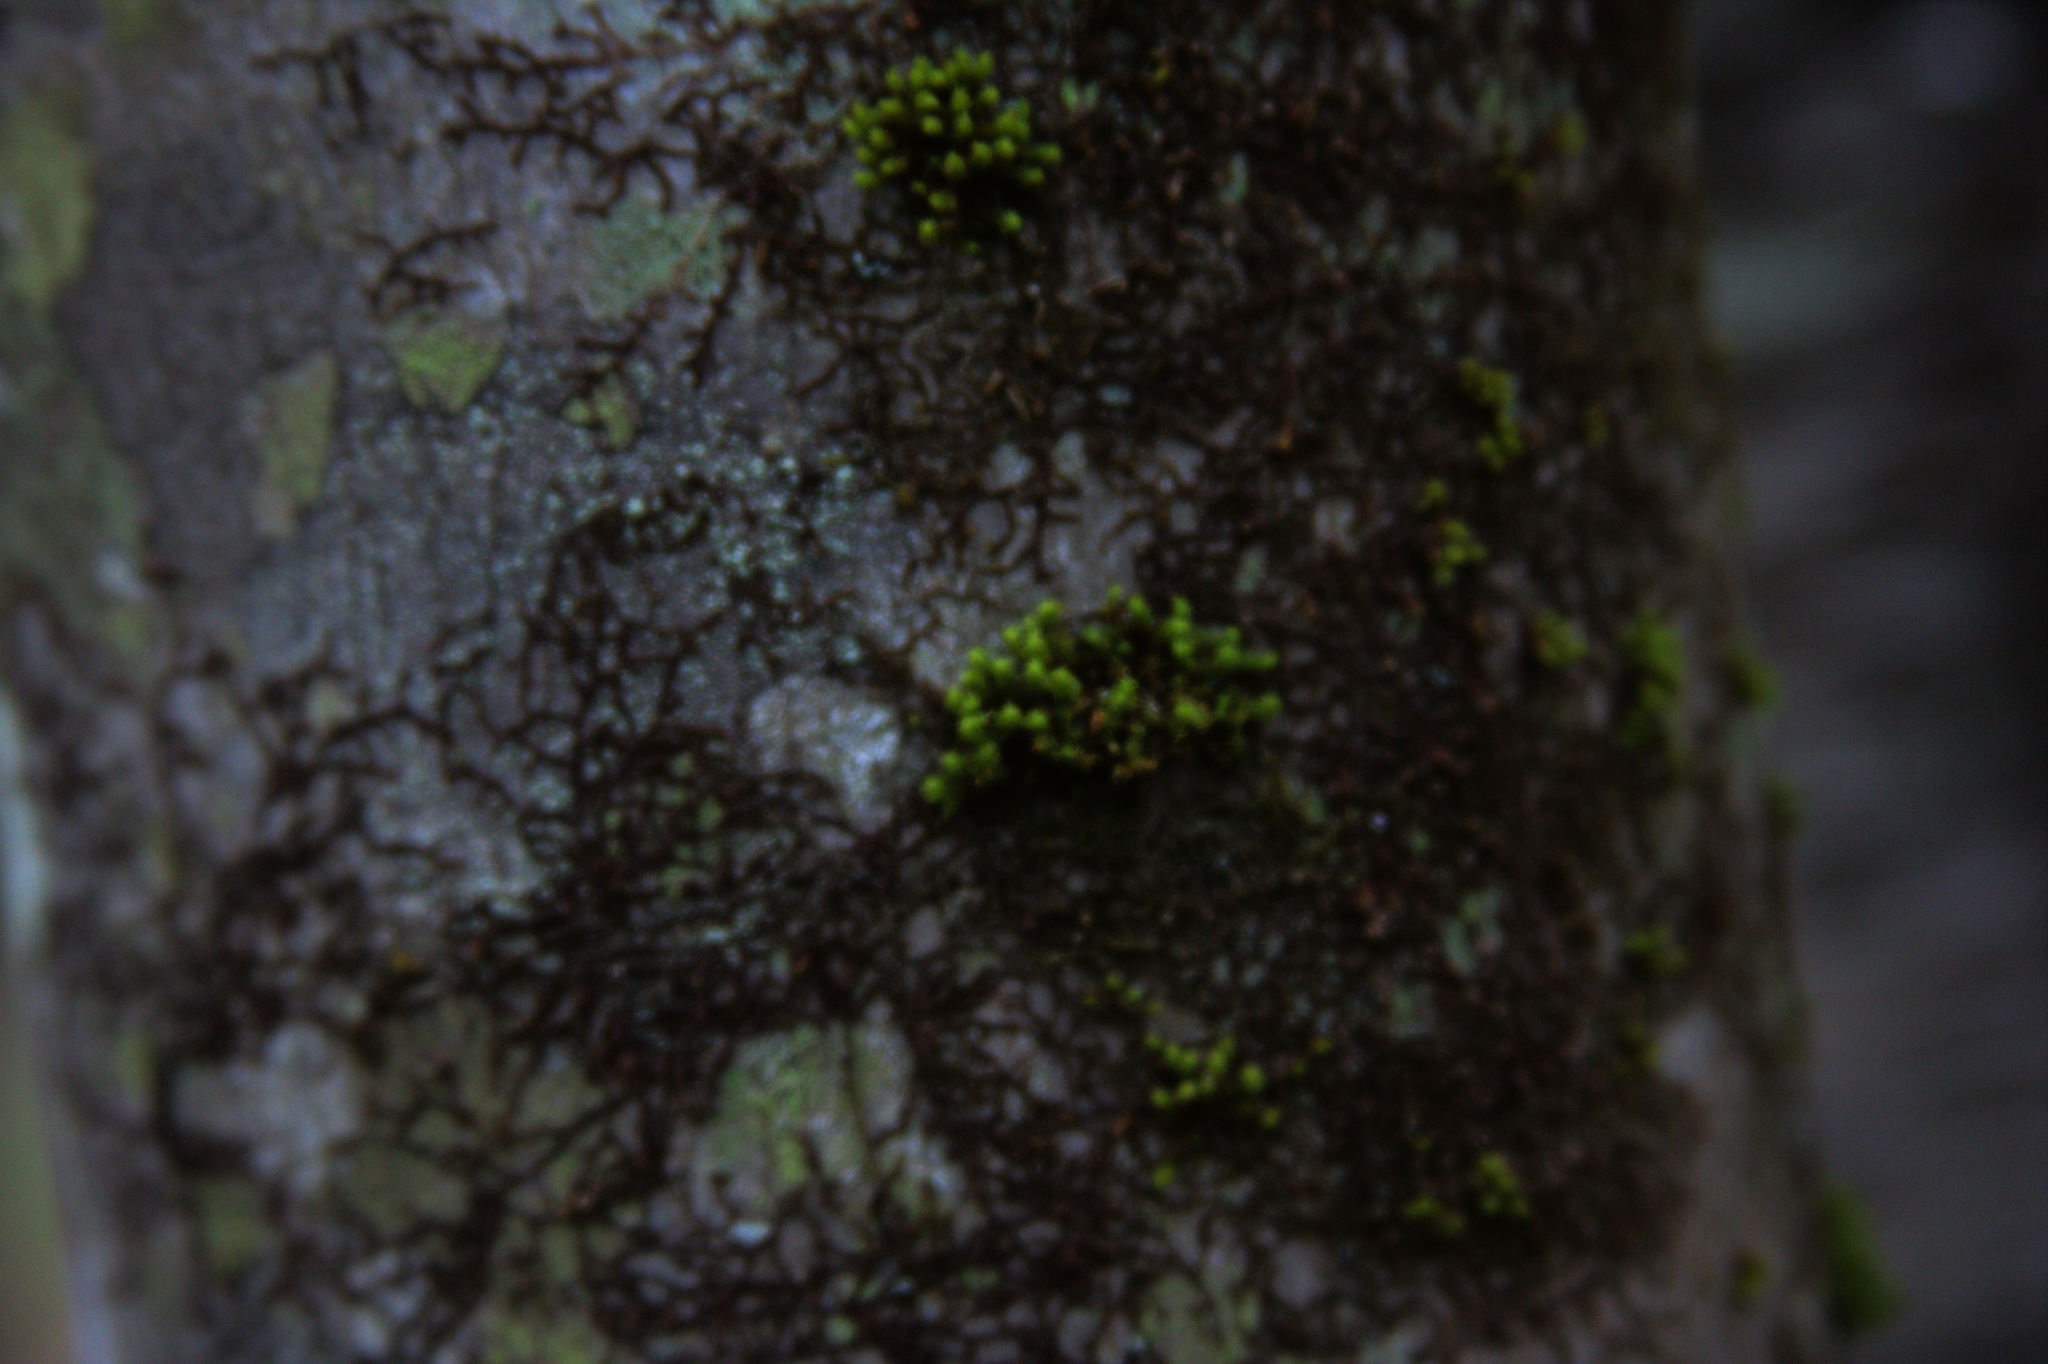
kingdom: Plantae
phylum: Bryophyta
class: Bryopsida
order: Orthotrichales
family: Orthotrichaceae
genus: Ulota
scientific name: Ulota crispa
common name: Crisped pincushion moss
